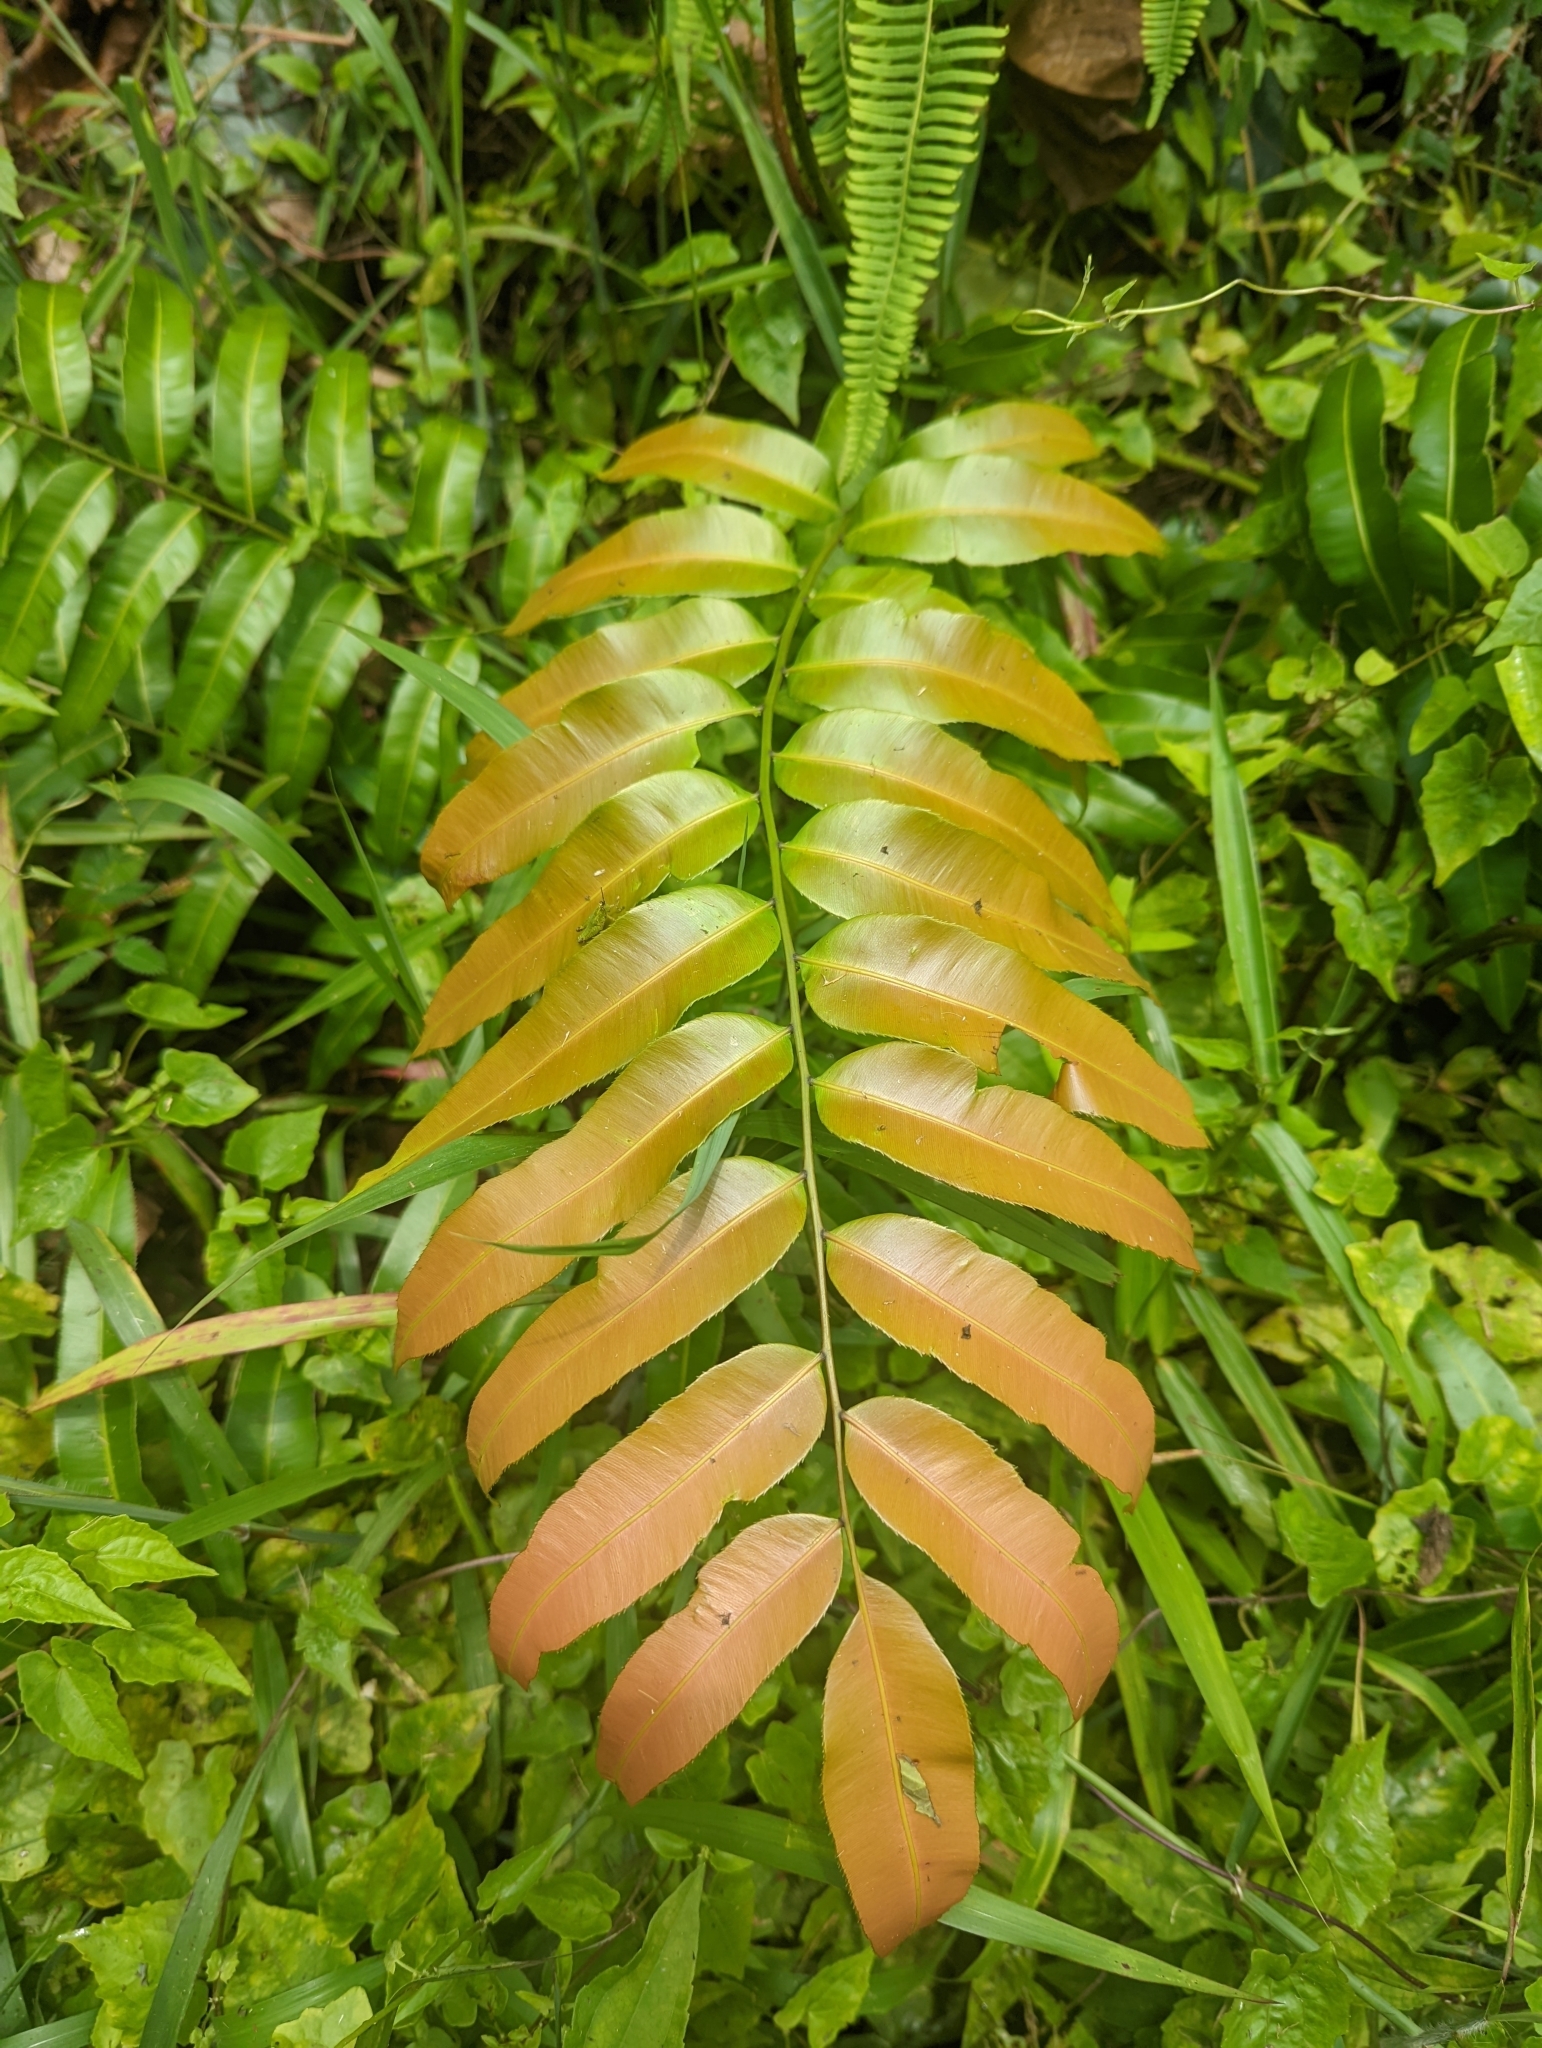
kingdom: Plantae
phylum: Tracheophyta
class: Polypodiopsida
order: Polypodiales
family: Blechnaceae
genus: Stenochlaena
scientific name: Stenochlaena palustris
